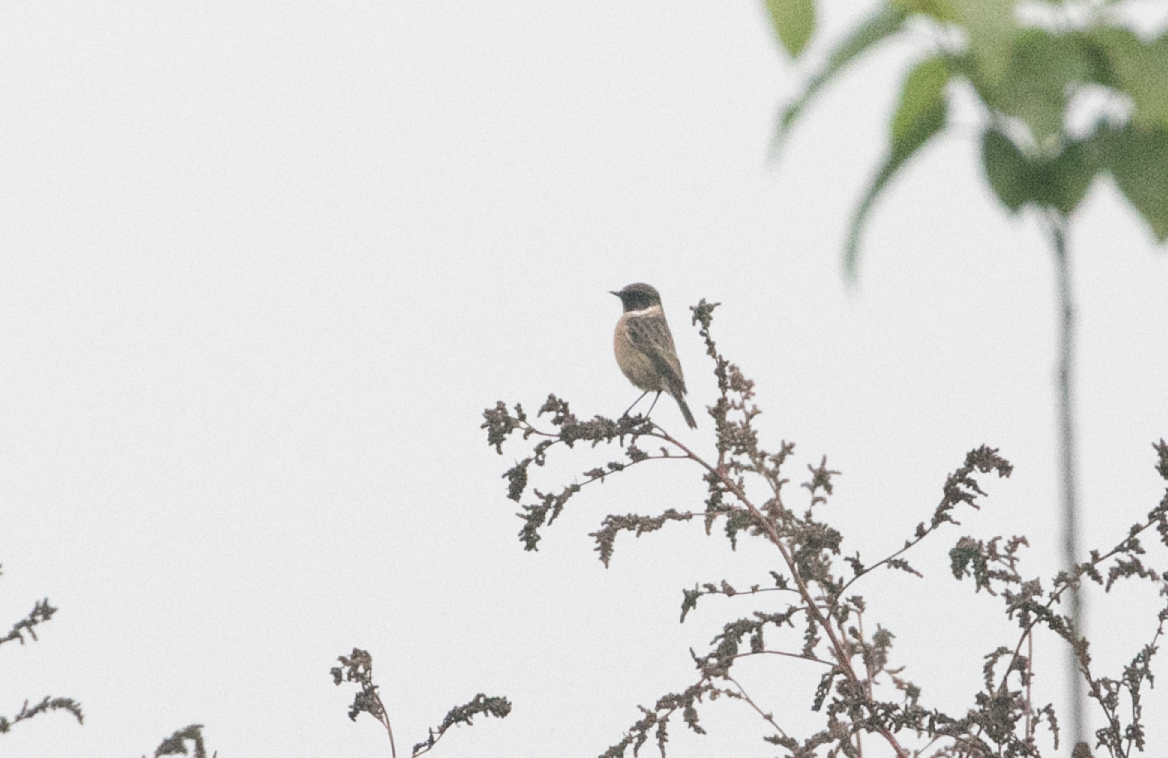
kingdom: Animalia
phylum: Chordata
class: Aves
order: Passeriformes
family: Muscicapidae
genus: Saxicola
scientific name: Saxicola rubicola
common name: European stonechat
